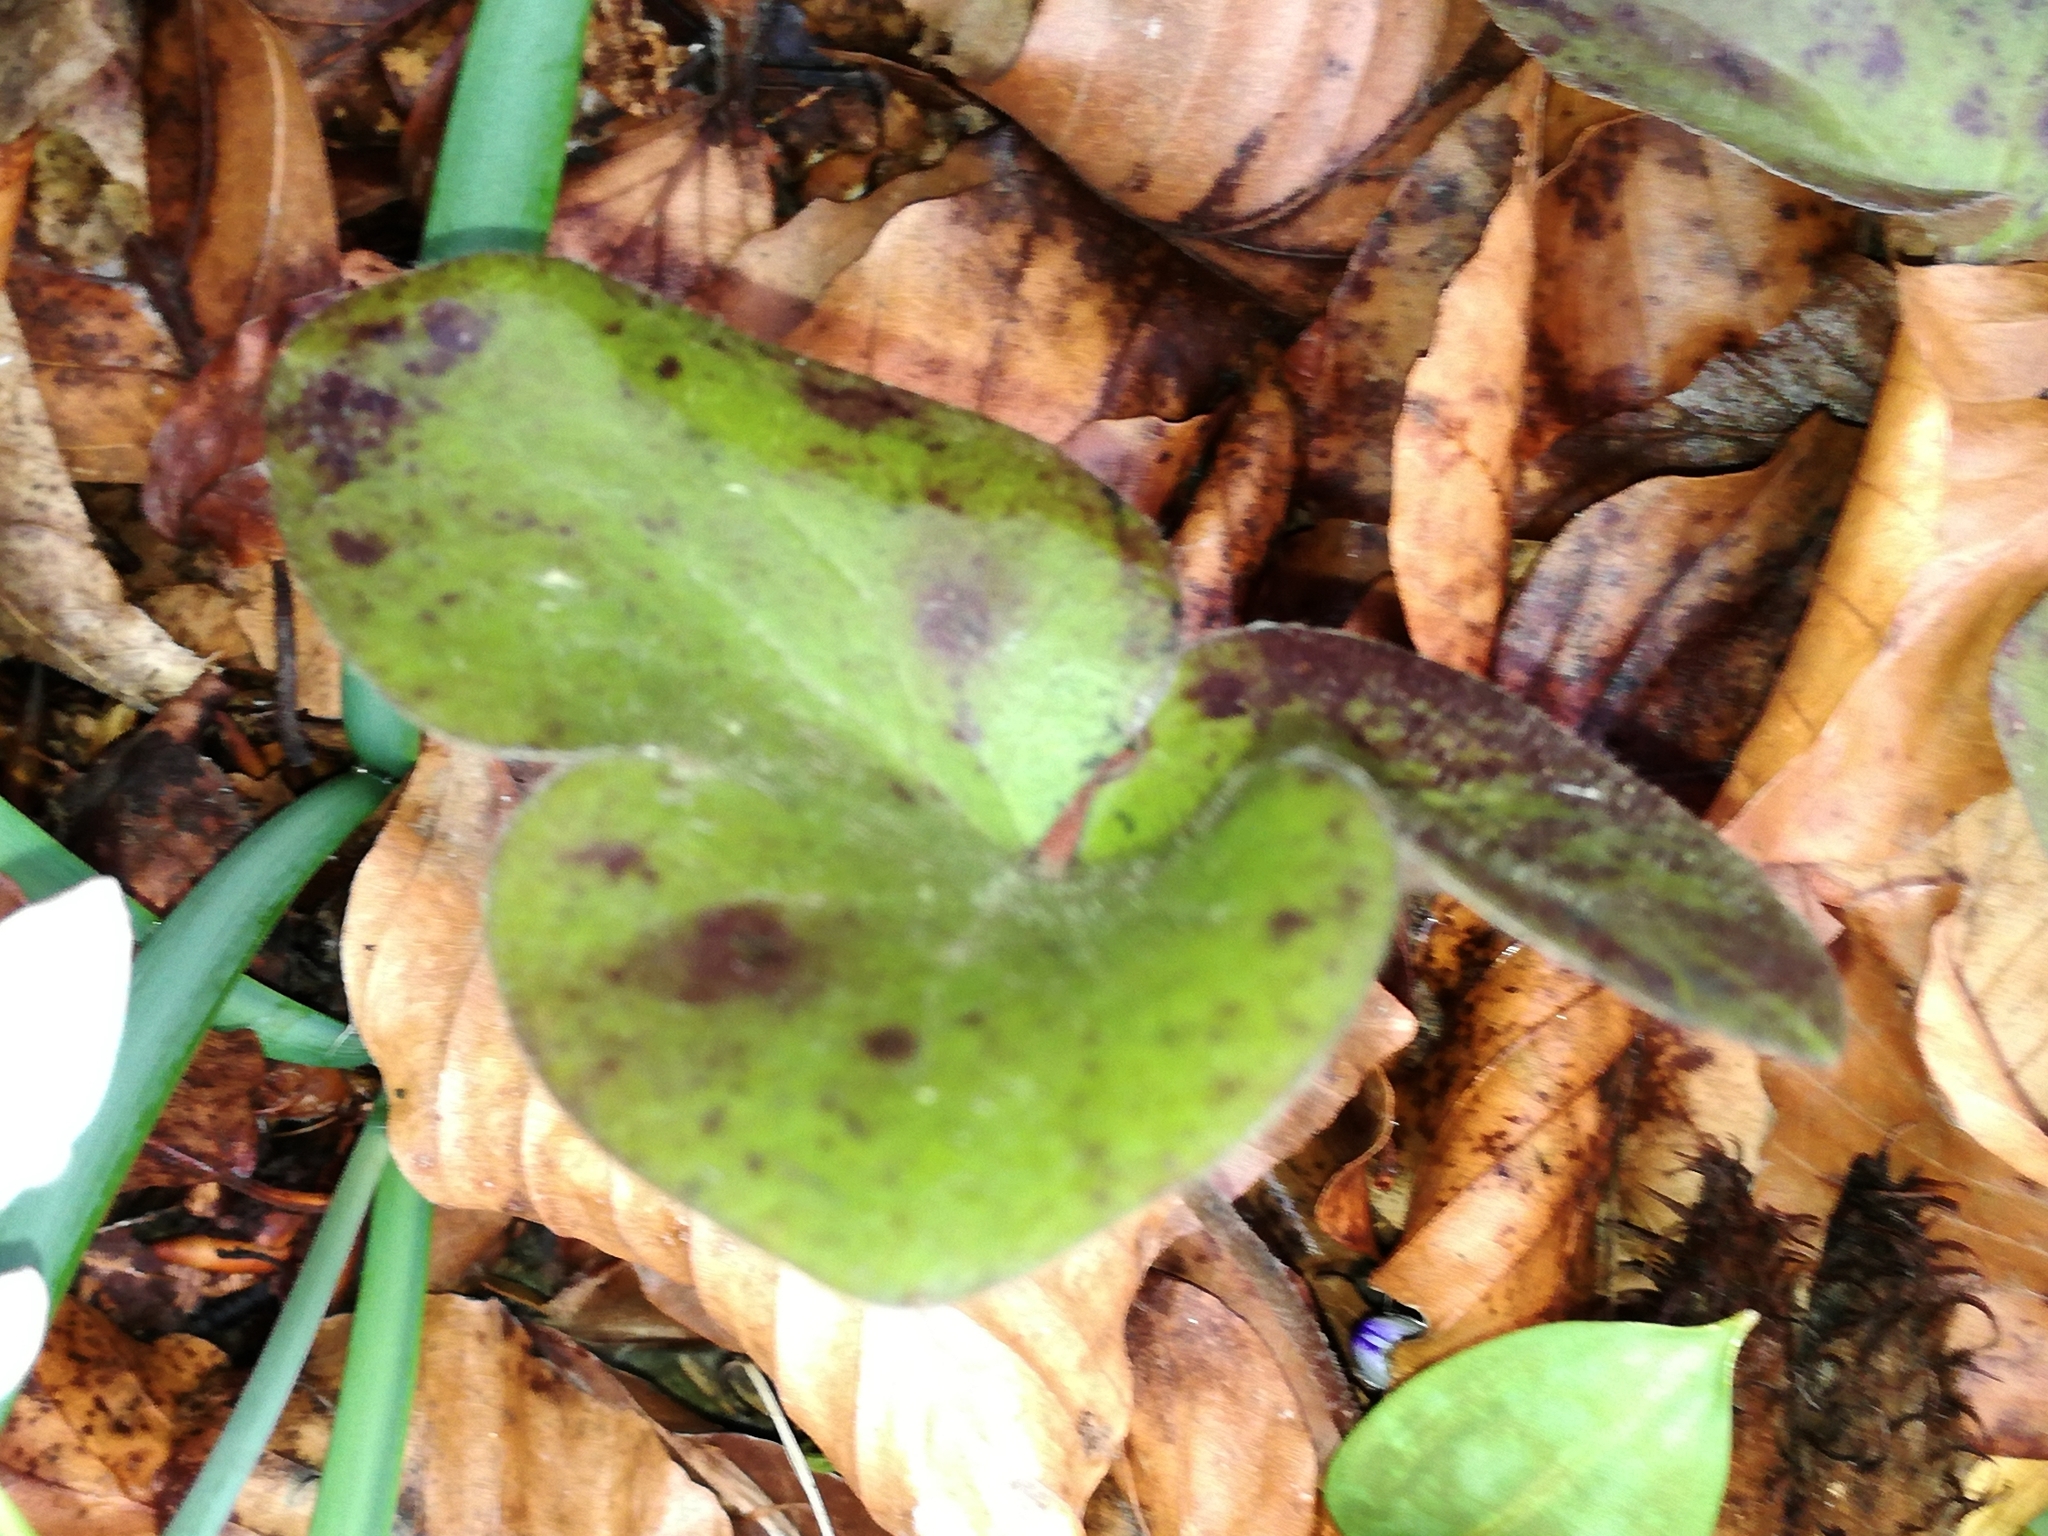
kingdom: Plantae
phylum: Tracheophyta
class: Magnoliopsida
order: Ranunculales
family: Ranunculaceae
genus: Hepatica
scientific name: Hepatica nobilis
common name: Liverleaf
